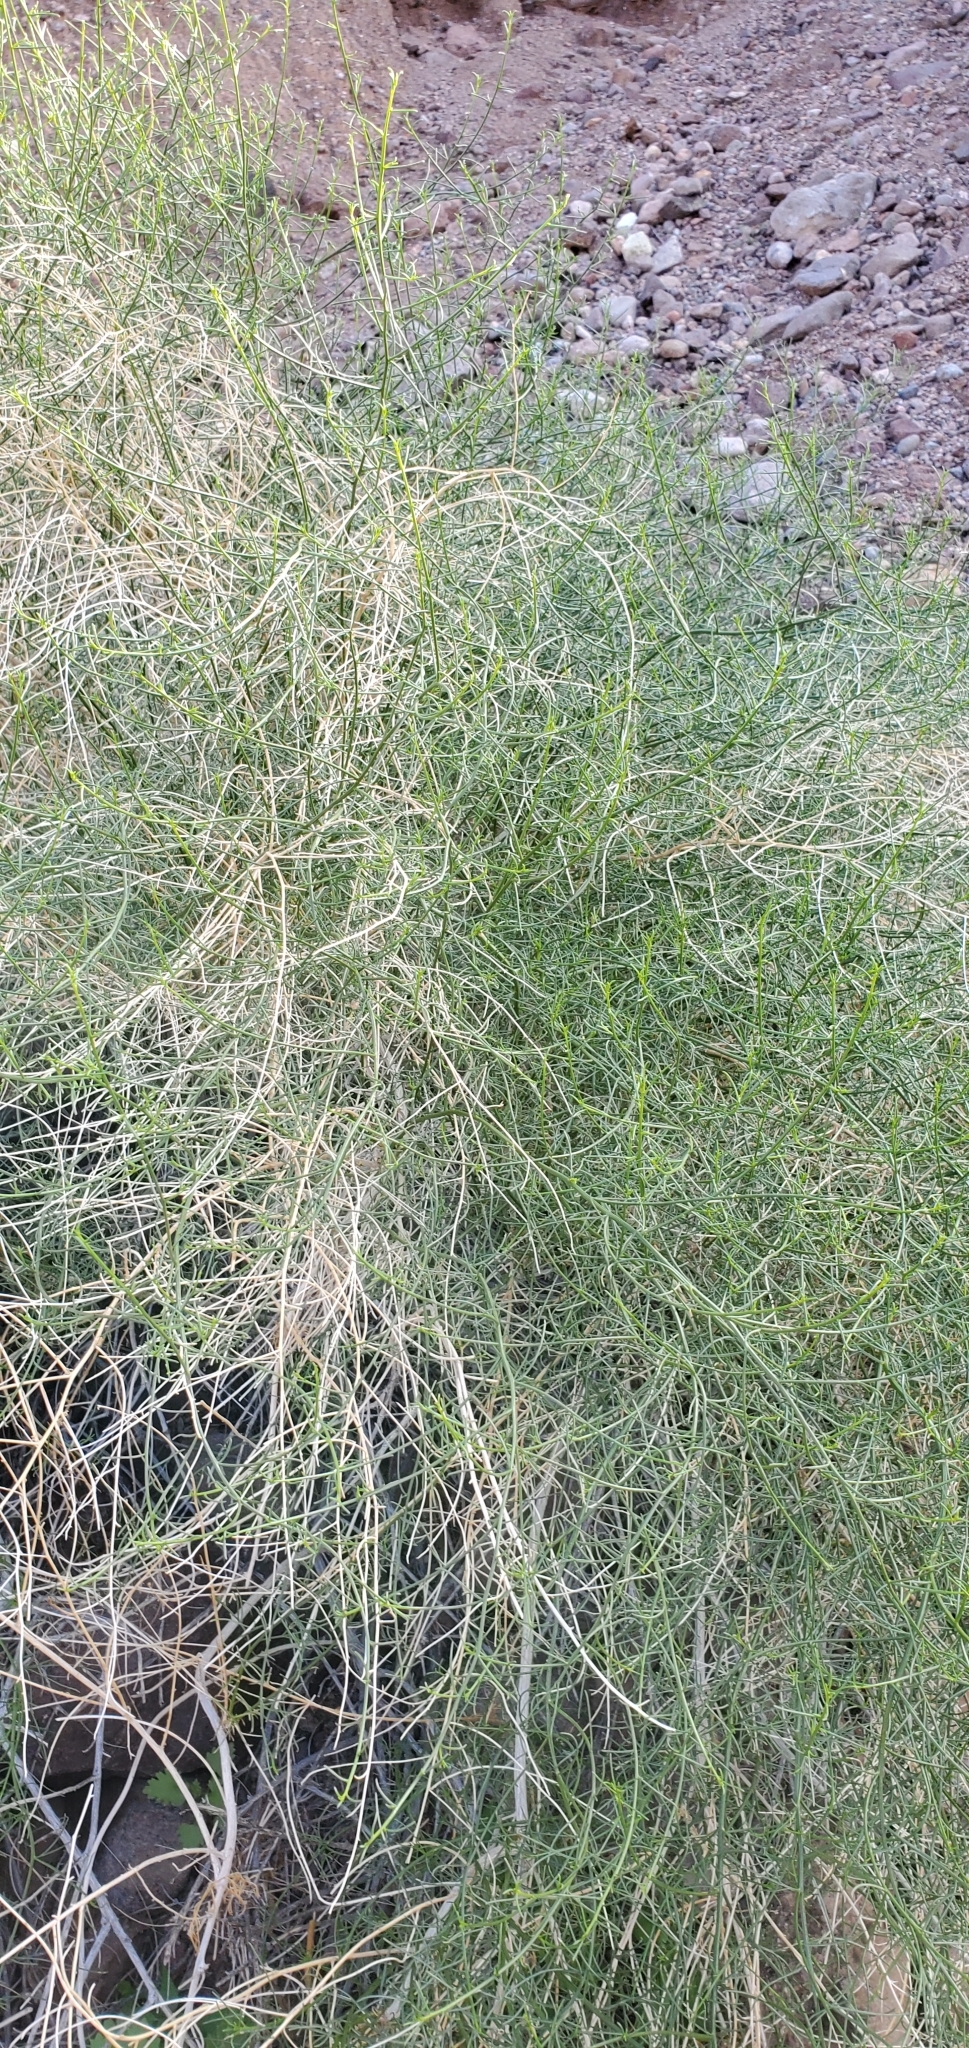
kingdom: Plantae
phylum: Tracheophyta
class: Magnoliopsida
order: Asterales
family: Asteraceae
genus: Ambrosia
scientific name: Ambrosia salsola
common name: Burrobrush
